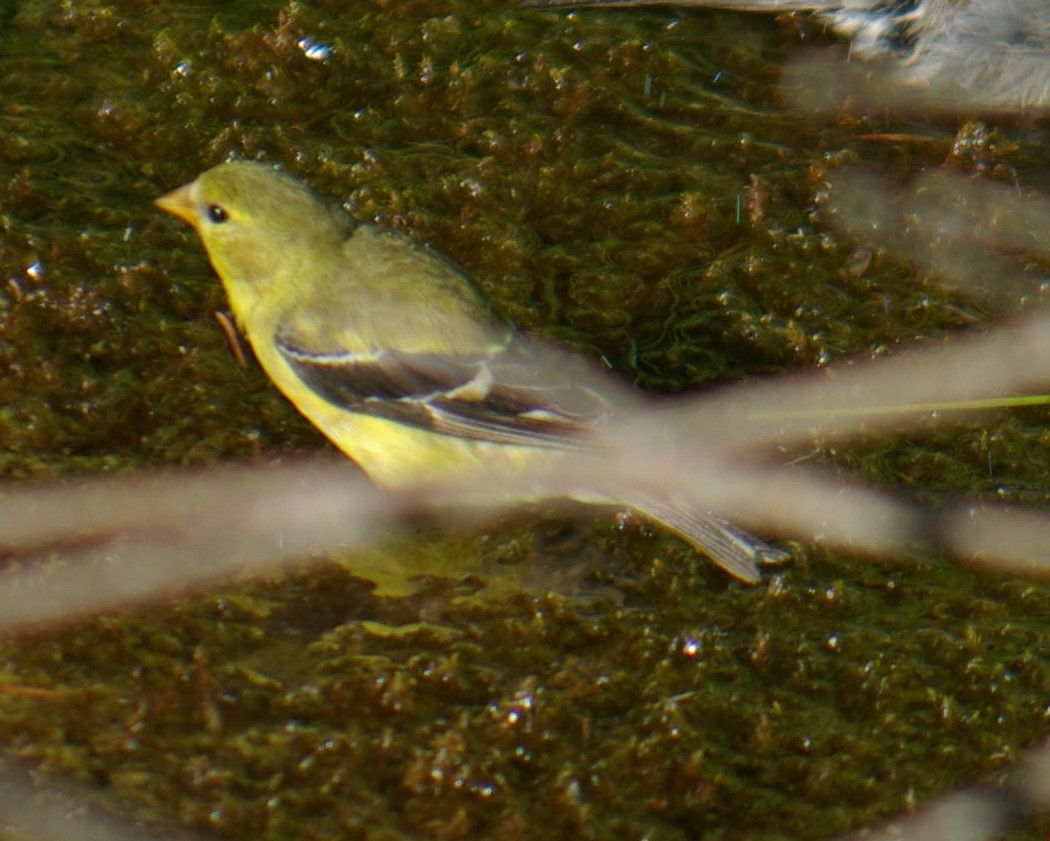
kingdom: Animalia
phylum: Chordata
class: Aves
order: Passeriformes
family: Fringillidae
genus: Spinus
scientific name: Spinus tristis
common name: American goldfinch
